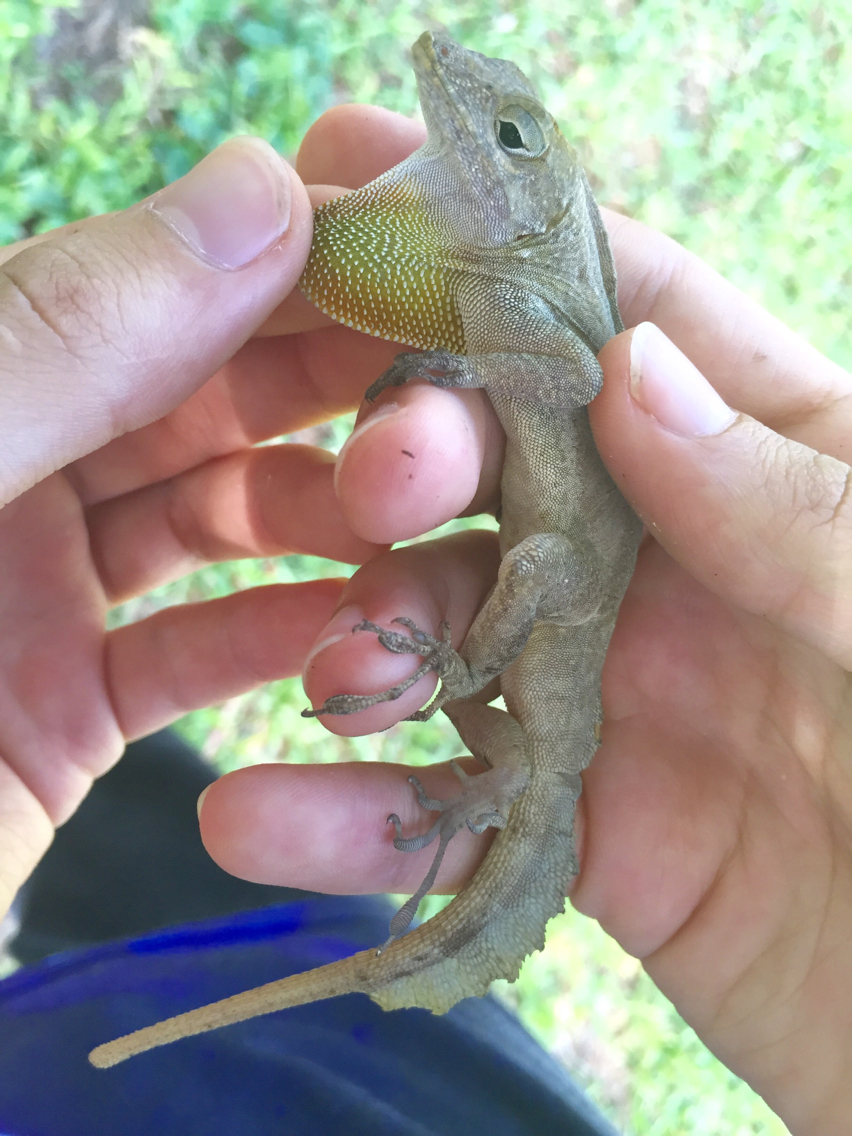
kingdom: Animalia
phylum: Chordata
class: Squamata
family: Dactyloidae
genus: Anolis
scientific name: Anolis cristatellus
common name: Crested anole
